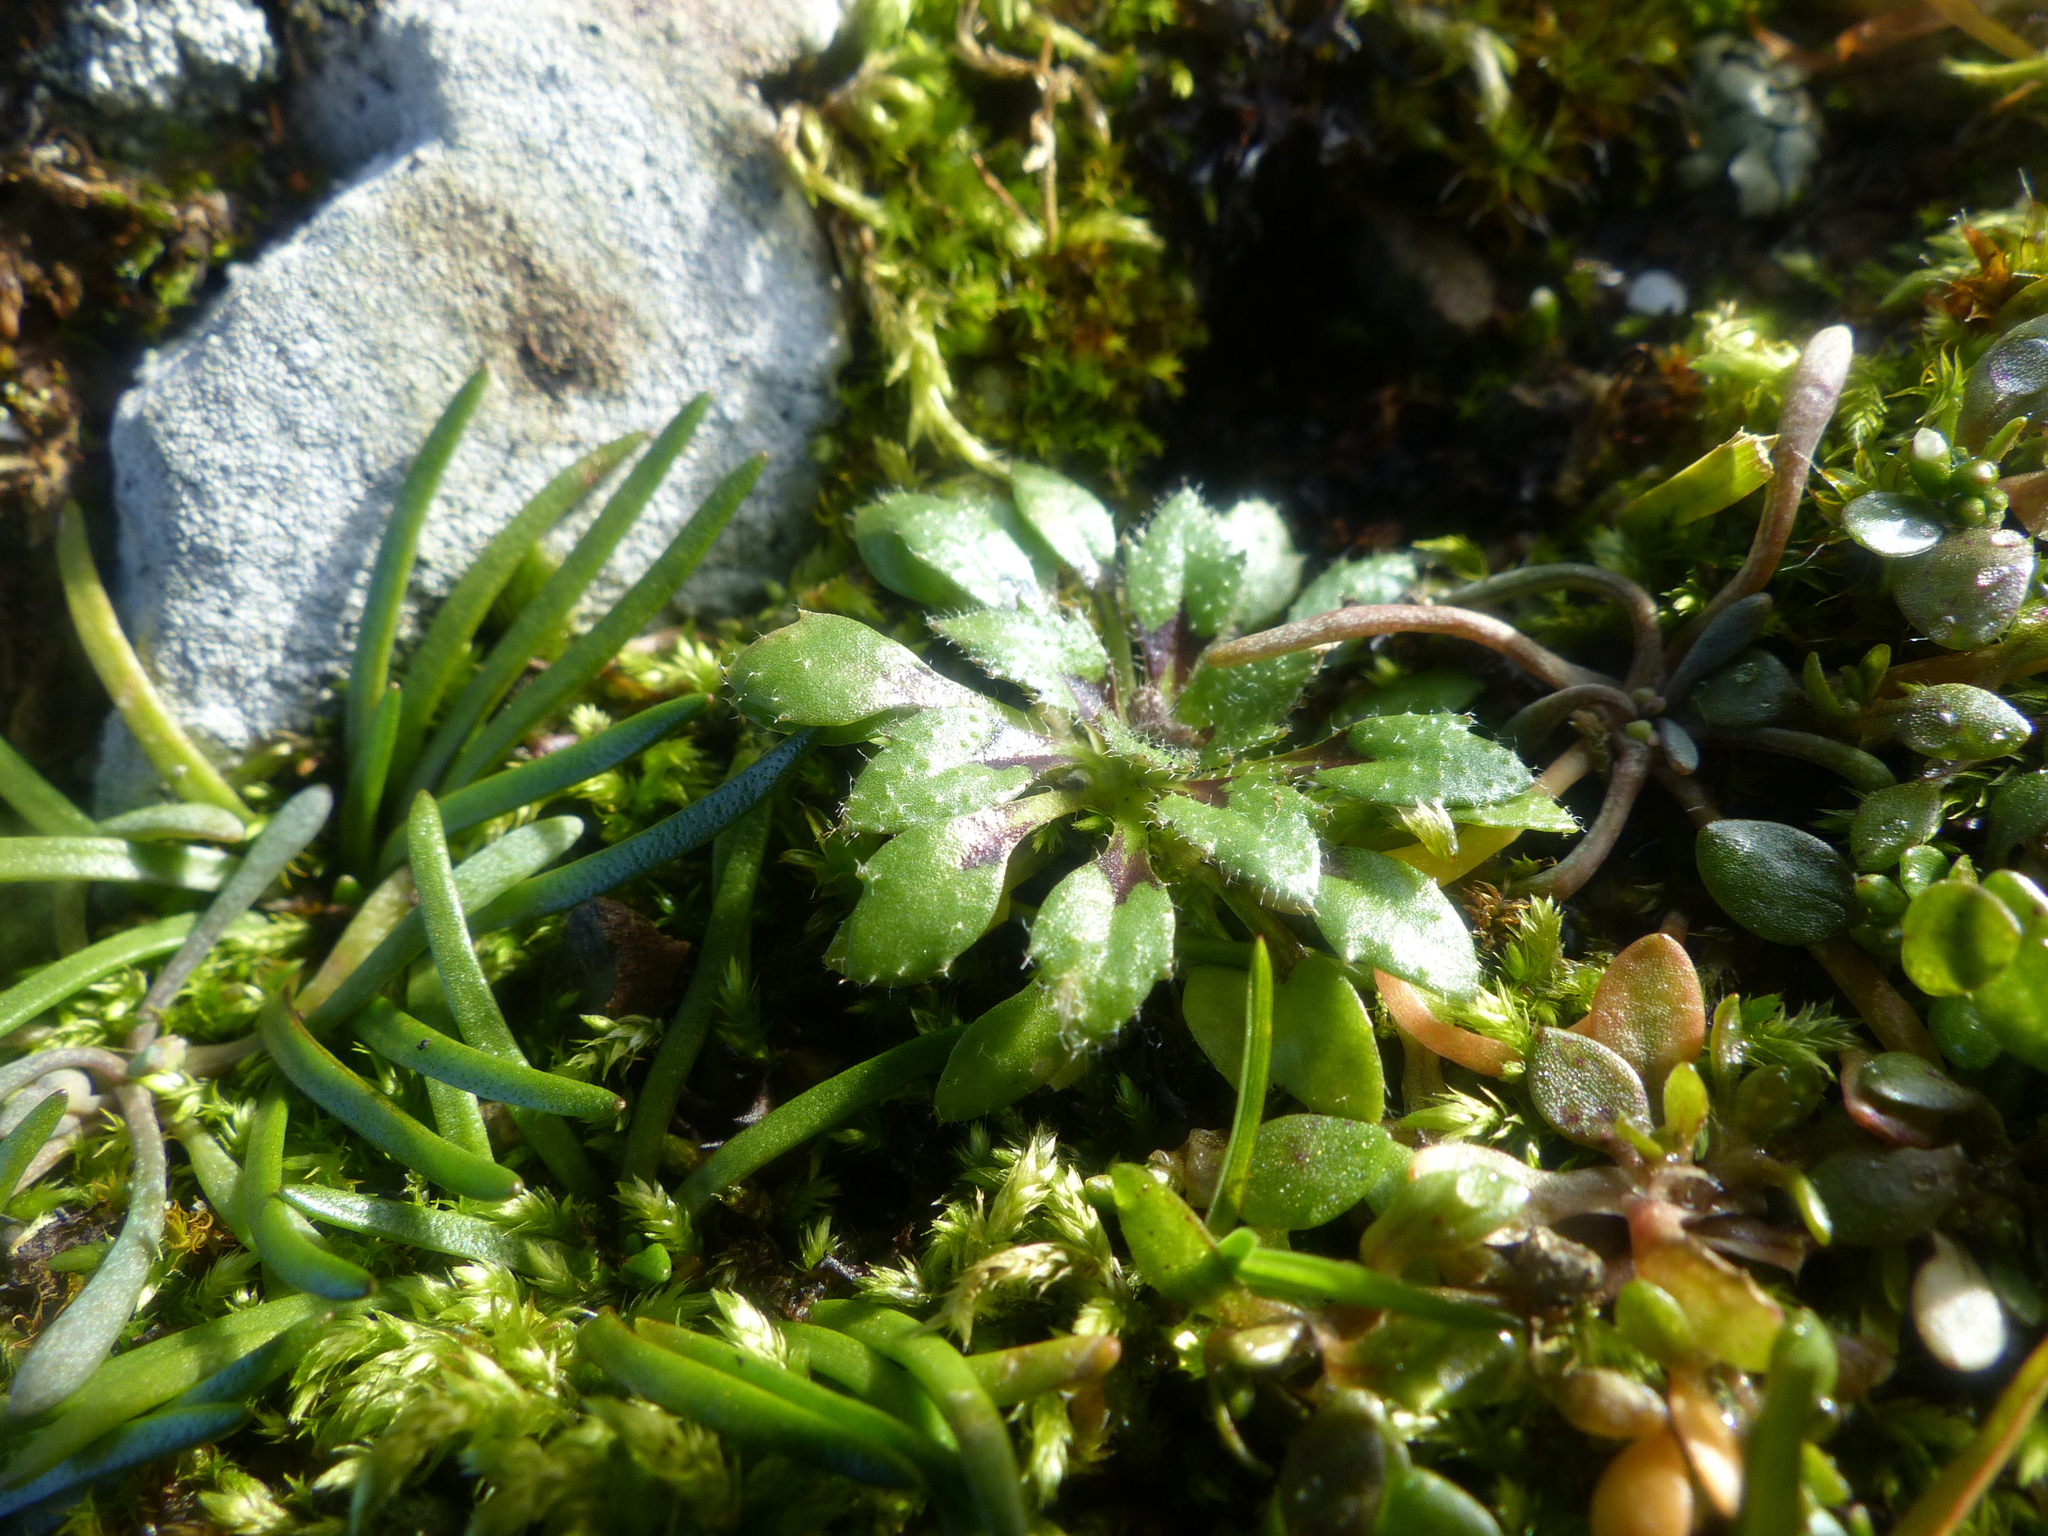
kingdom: Plantae
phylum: Tracheophyta
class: Magnoliopsida
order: Brassicales
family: Brassicaceae
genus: Draba
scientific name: Draba verna
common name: Spring draba
